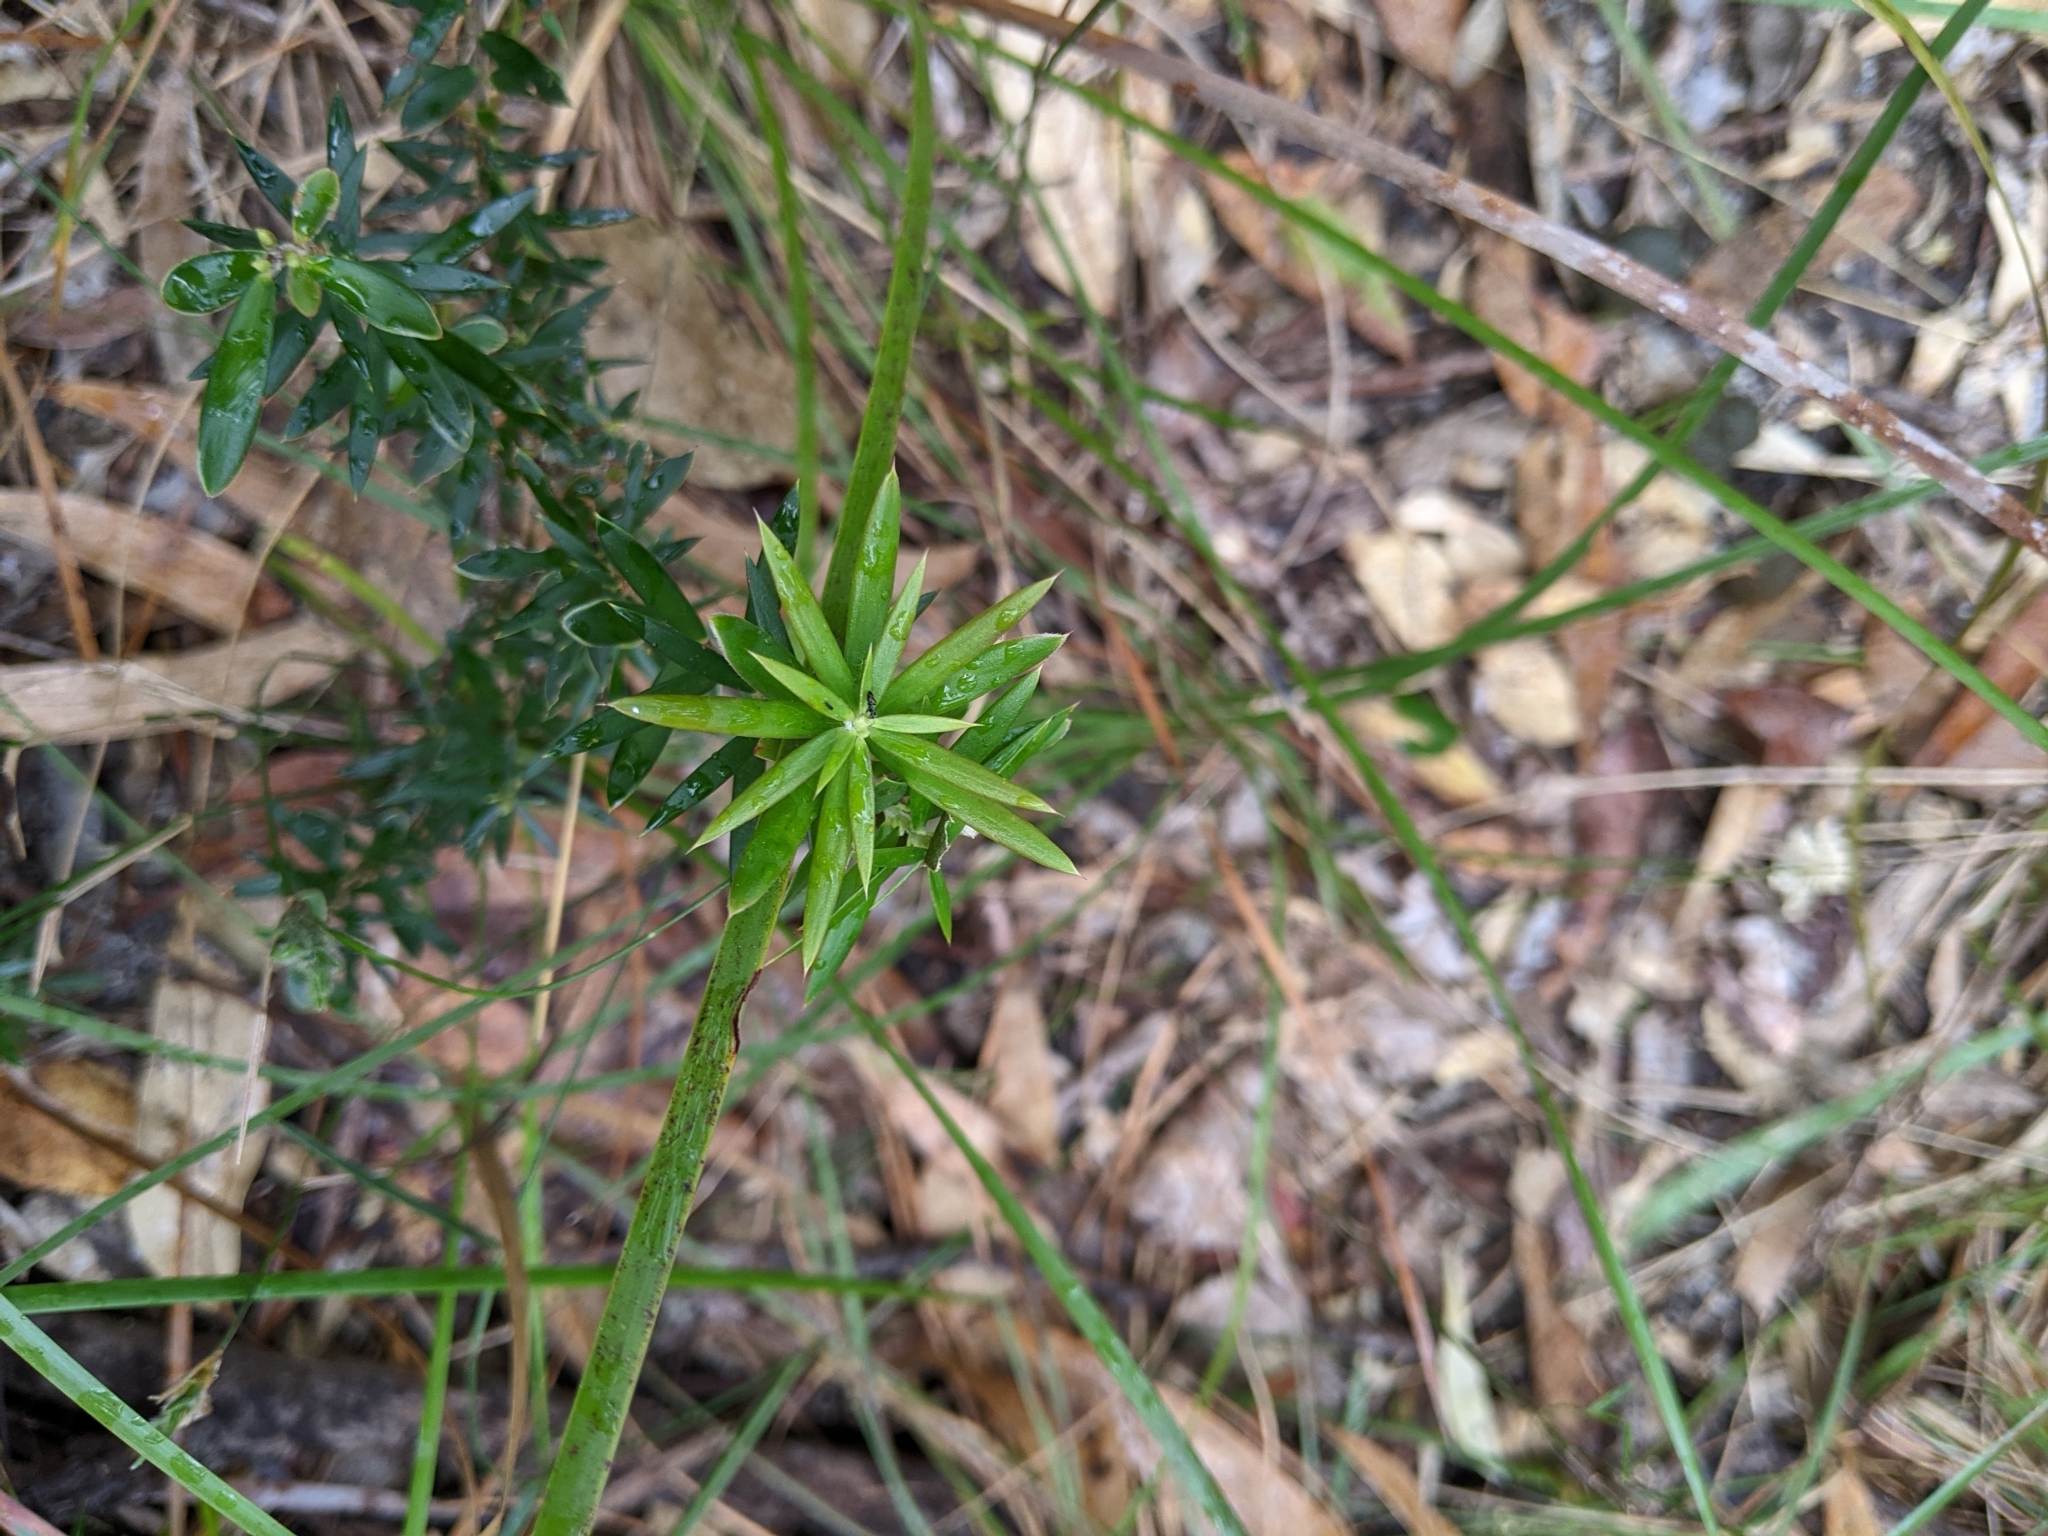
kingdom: Plantae
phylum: Tracheophyta
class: Magnoliopsida
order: Ericales
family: Ericaceae
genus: Acrotriche
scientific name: Acrotriche aggregata
